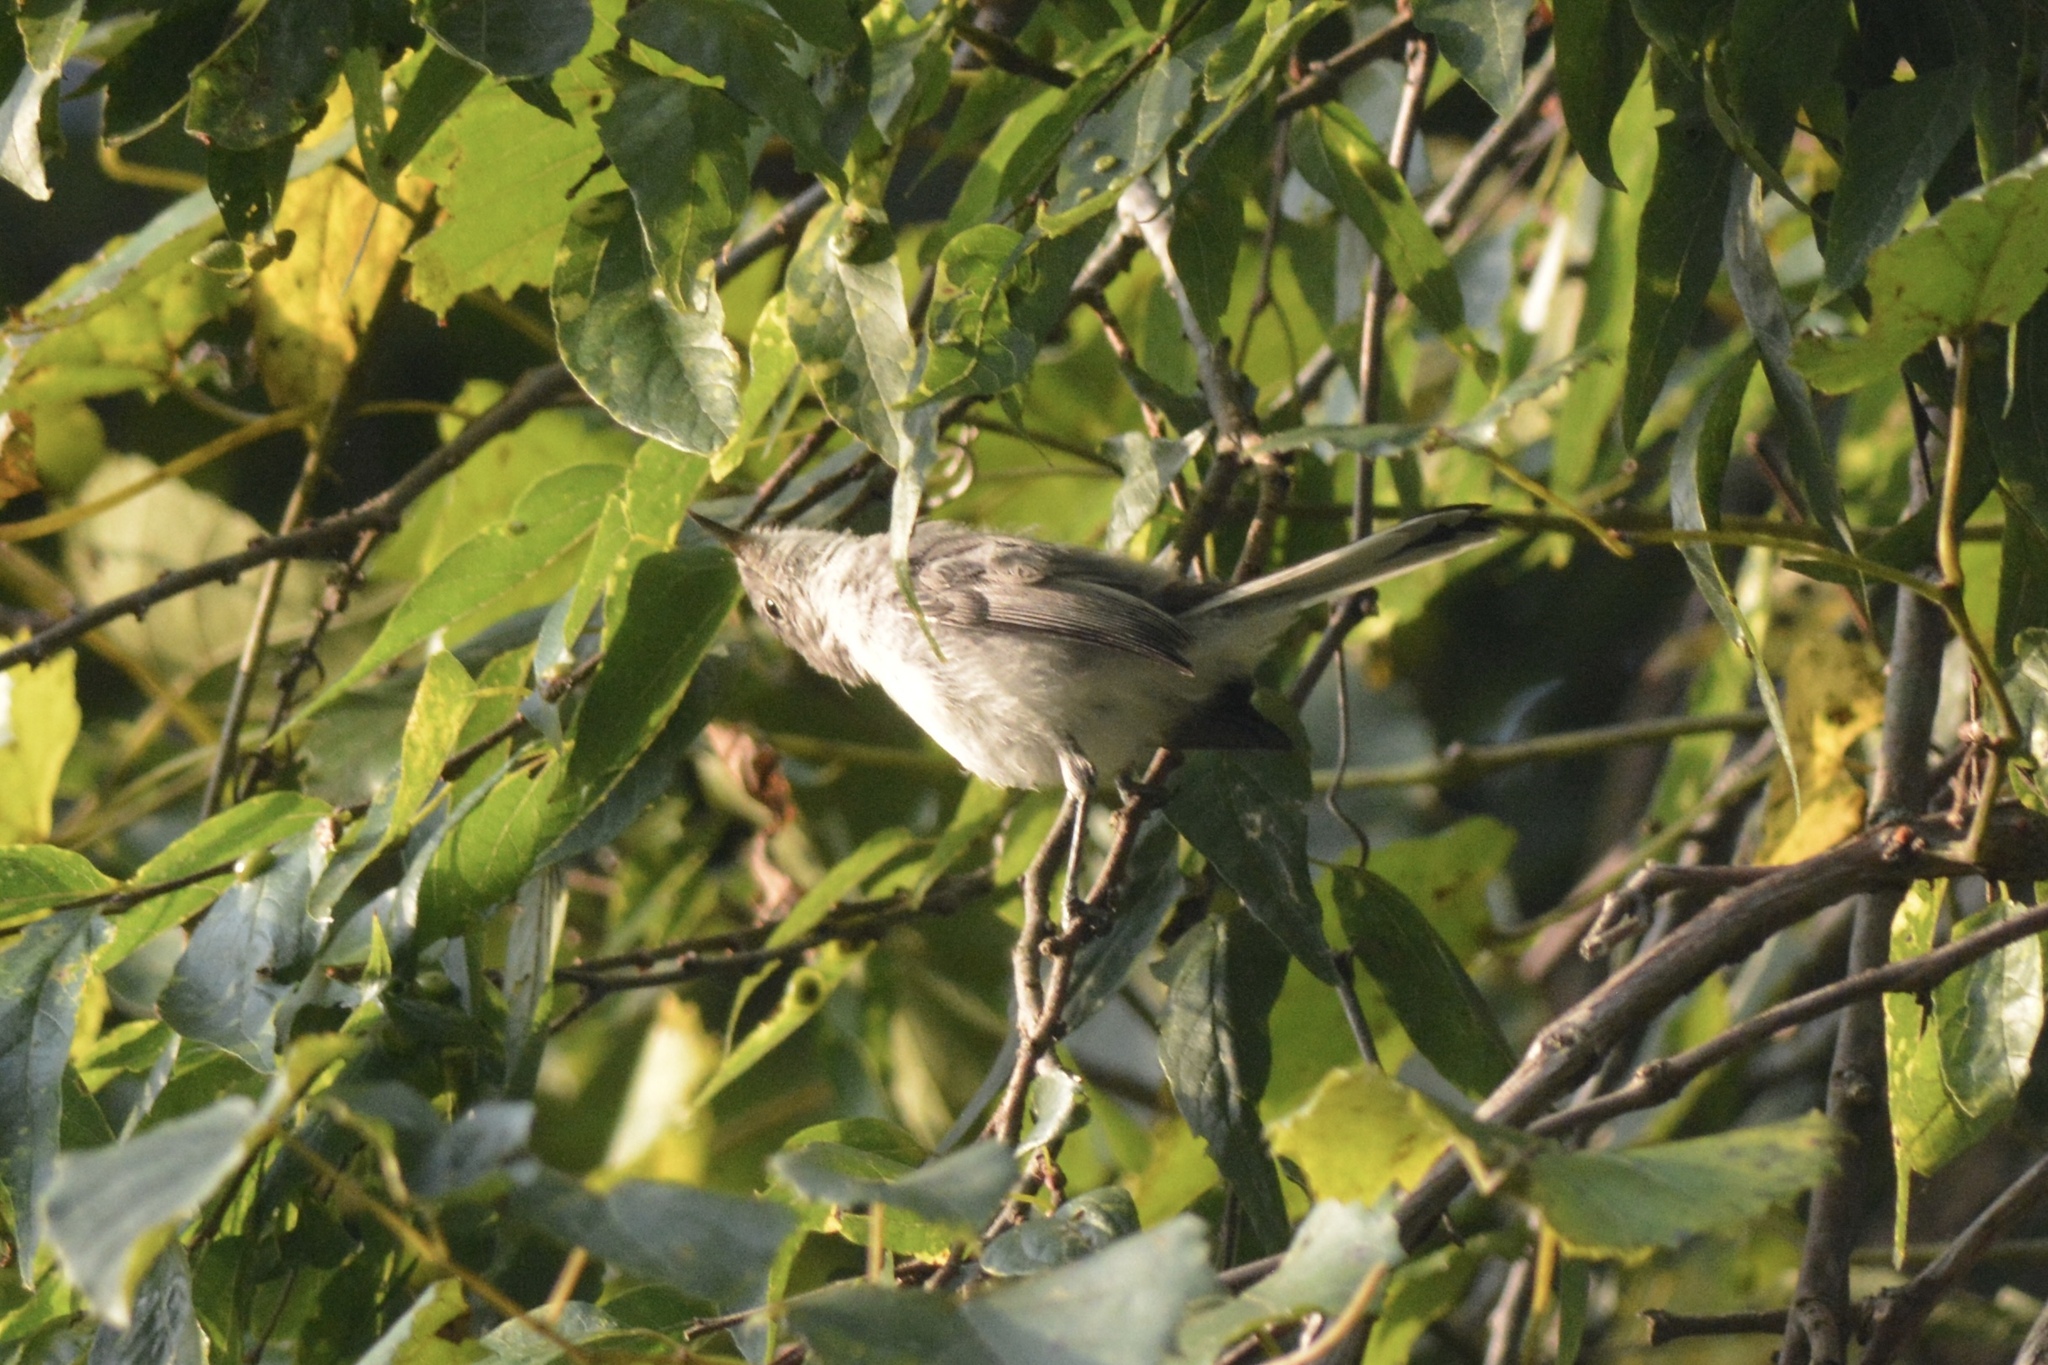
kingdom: Animalia
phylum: Chordata
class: Aves
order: Passeriformes
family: Polioptilidae
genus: Polioptila
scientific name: Polioptila caerulea
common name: Blue-gray gnatcatcher
